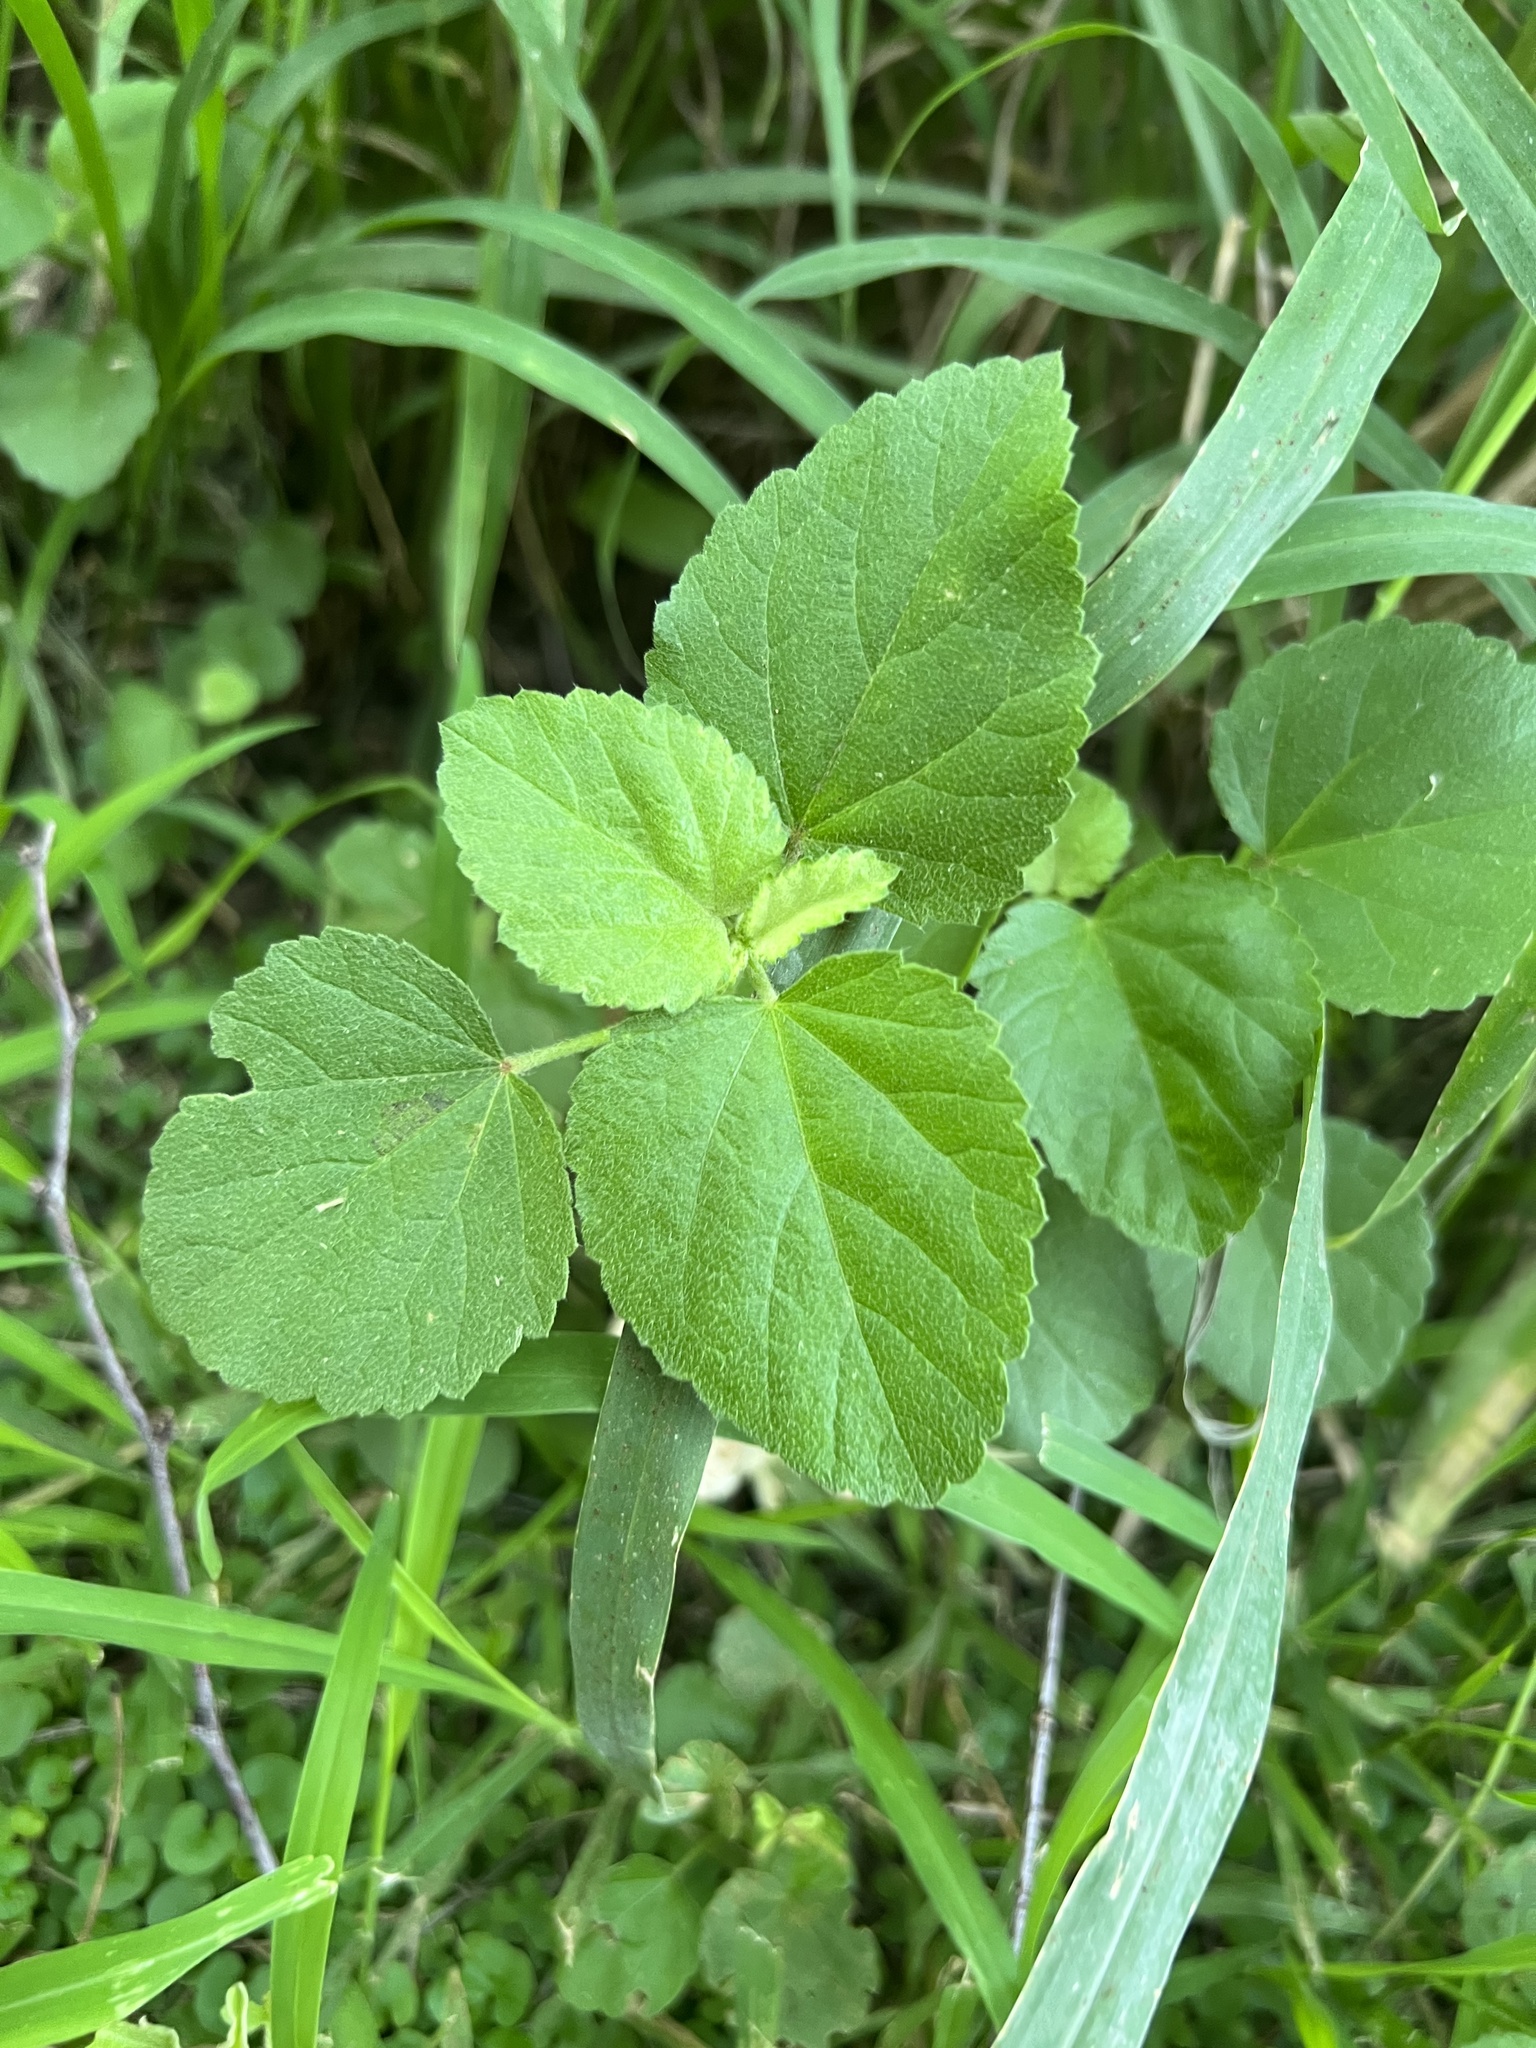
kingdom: Plantae
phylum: Tracheophyta
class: Magnoliopsida
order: Malvales
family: Malvaceae
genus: Malvastrum
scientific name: Malvastrum americanum
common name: Spiked malvastrum
